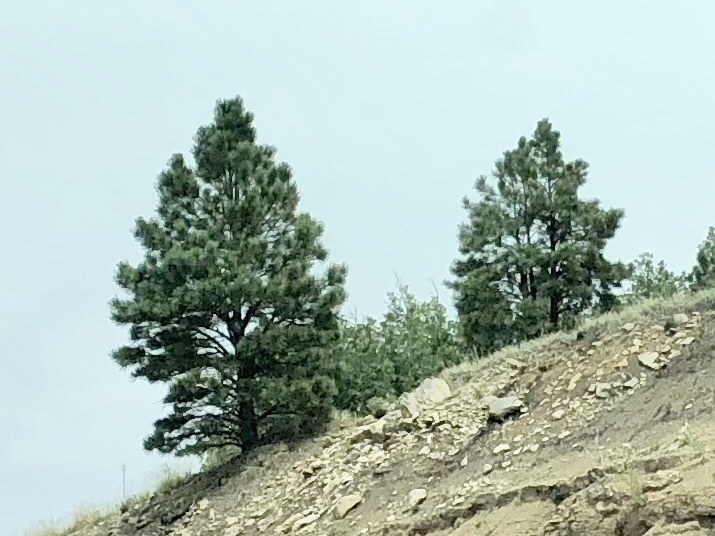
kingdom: Plantae
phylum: Tracheophyta
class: Pinopsida
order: Pinales
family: Pinaceae
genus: Pinus
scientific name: Pinus ponderosa
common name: Western yellow-pine
